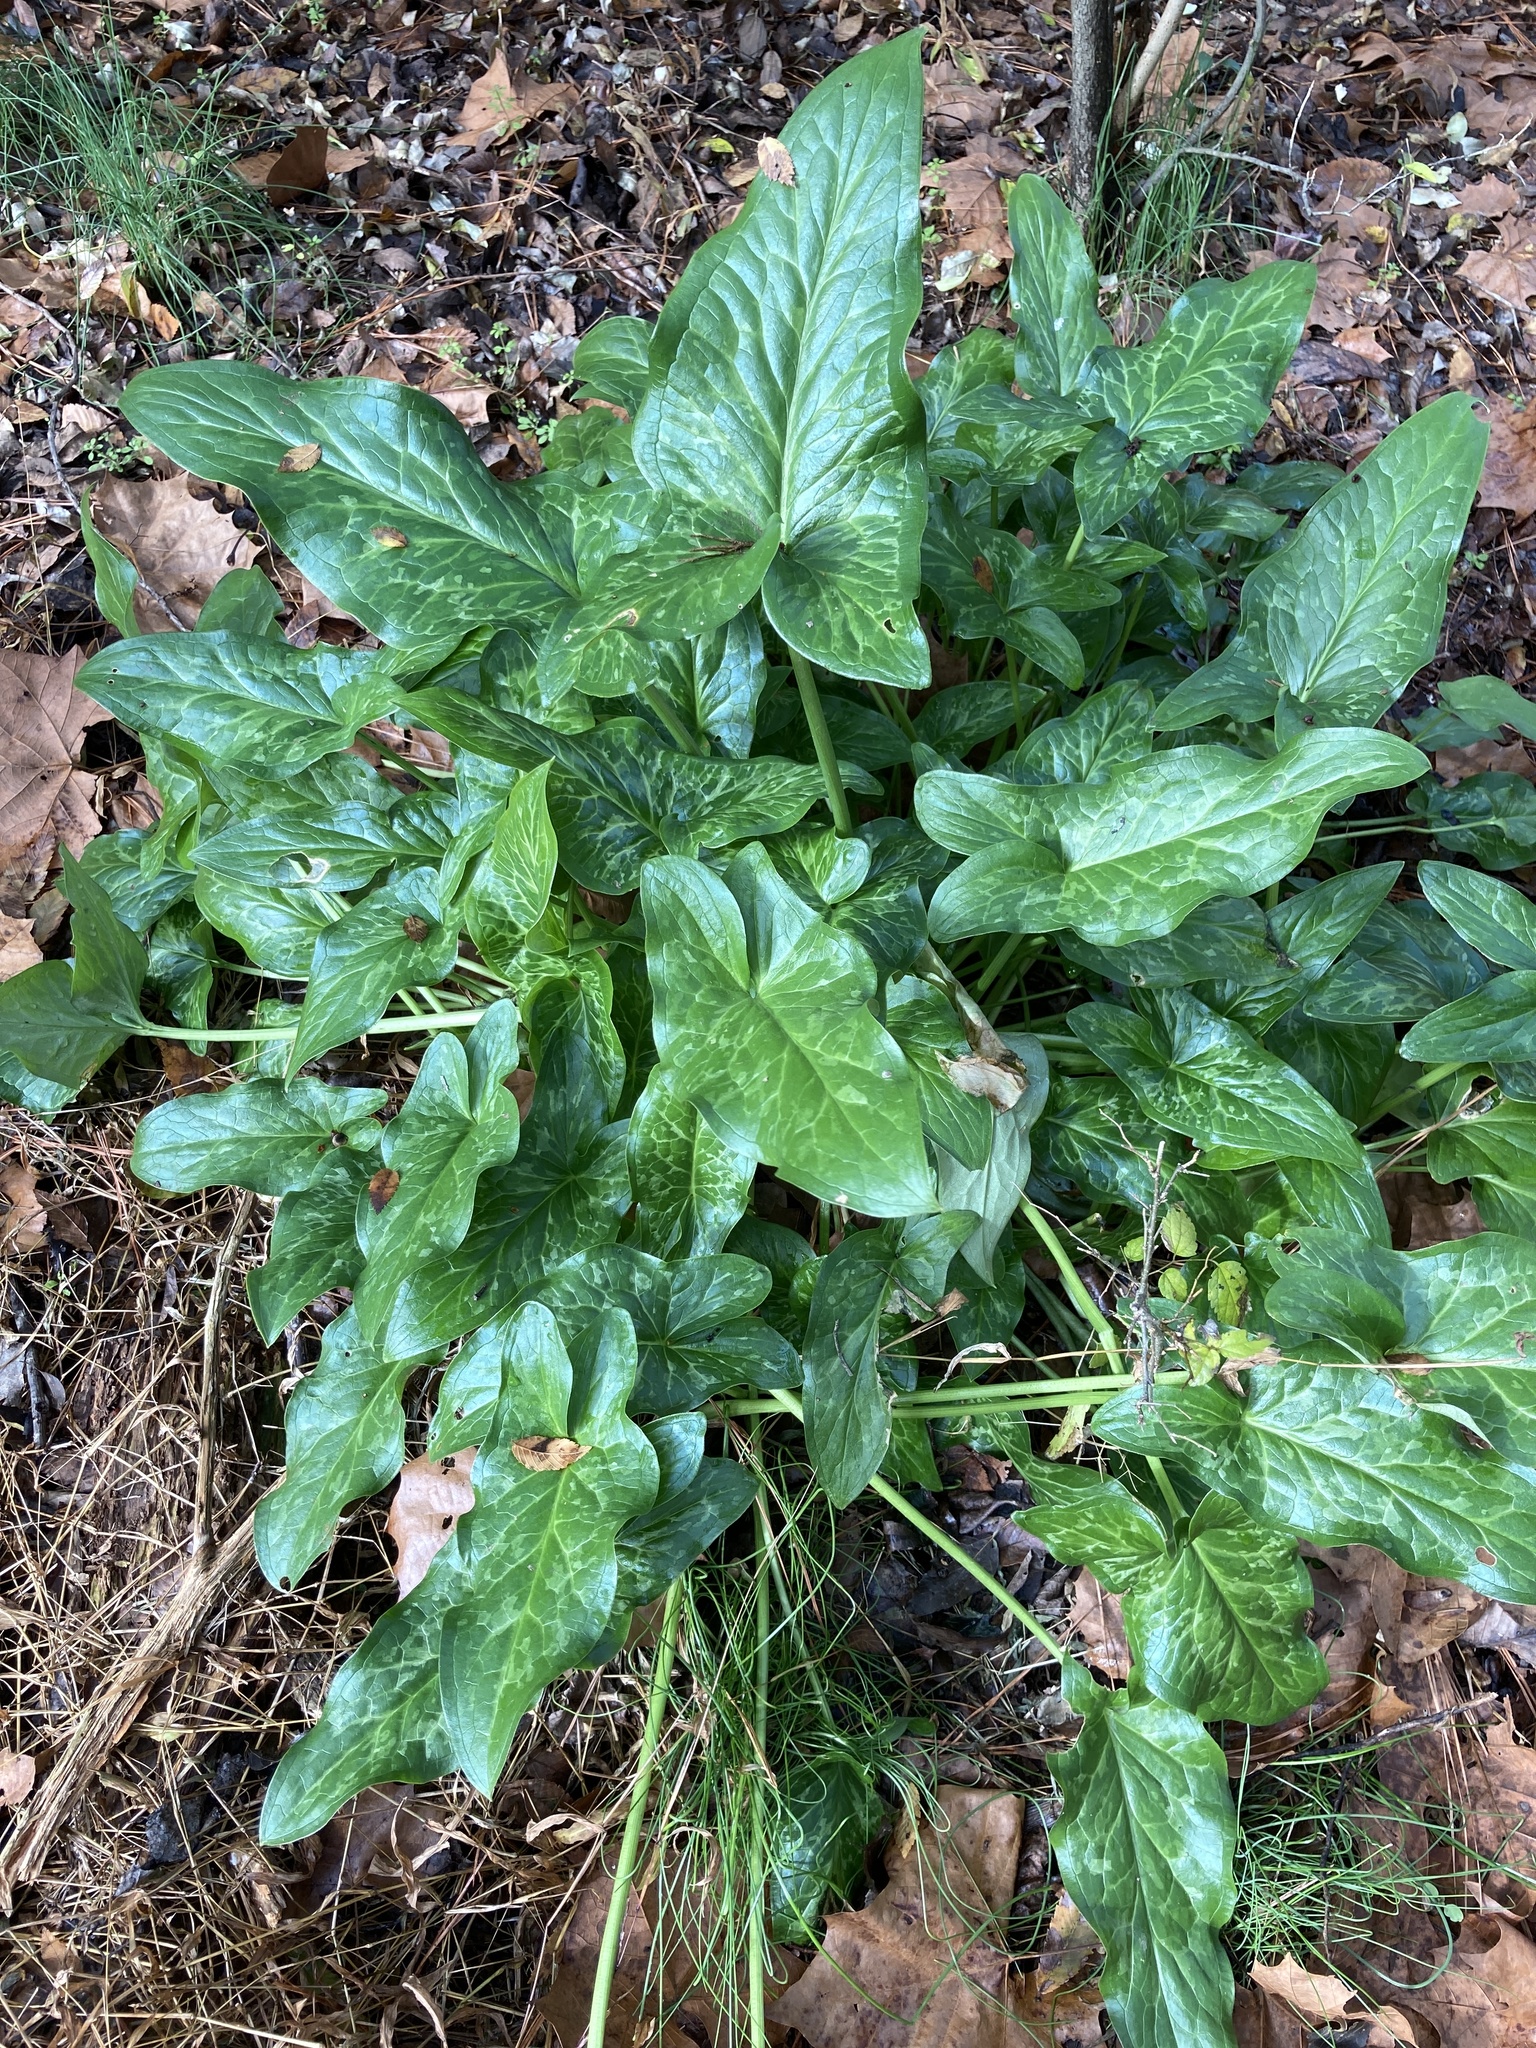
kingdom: Plantae
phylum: Tracheophyta
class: Liliopsida
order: Alismatales
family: Araceae
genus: Arum
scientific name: Arum italicum
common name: Italian lords-and-ladies
